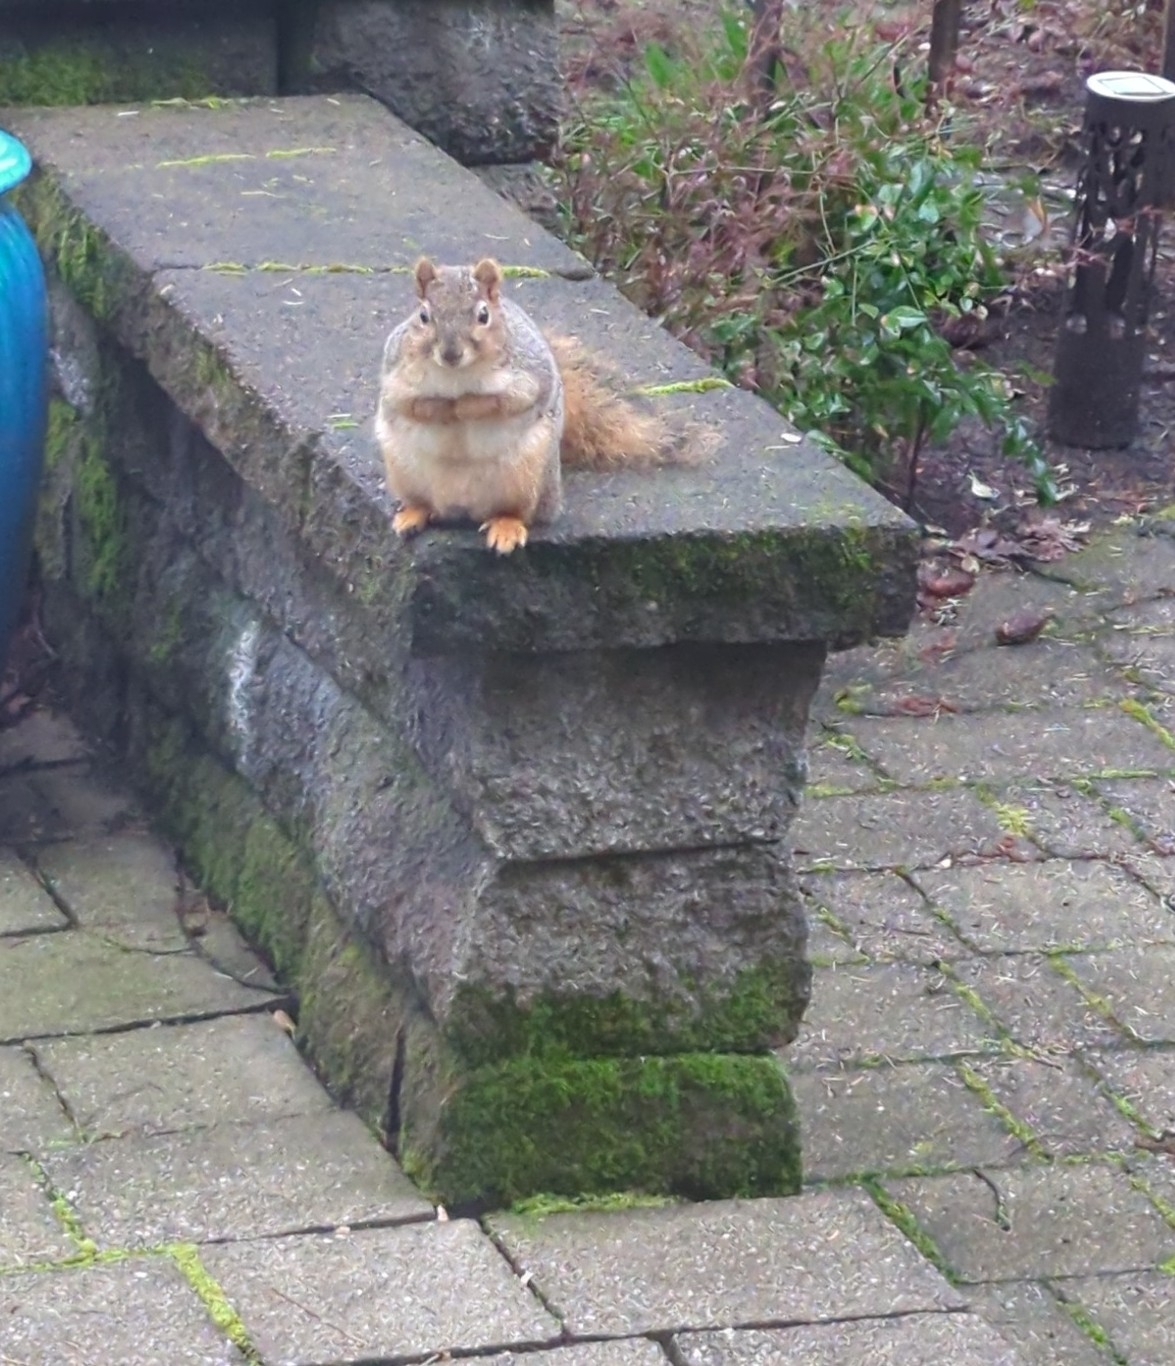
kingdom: Animalia
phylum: Chordata
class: Mammalia
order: Rodentia
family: Sciuridae
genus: Sciurus
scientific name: Sciurus niger
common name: Fox squirrel
